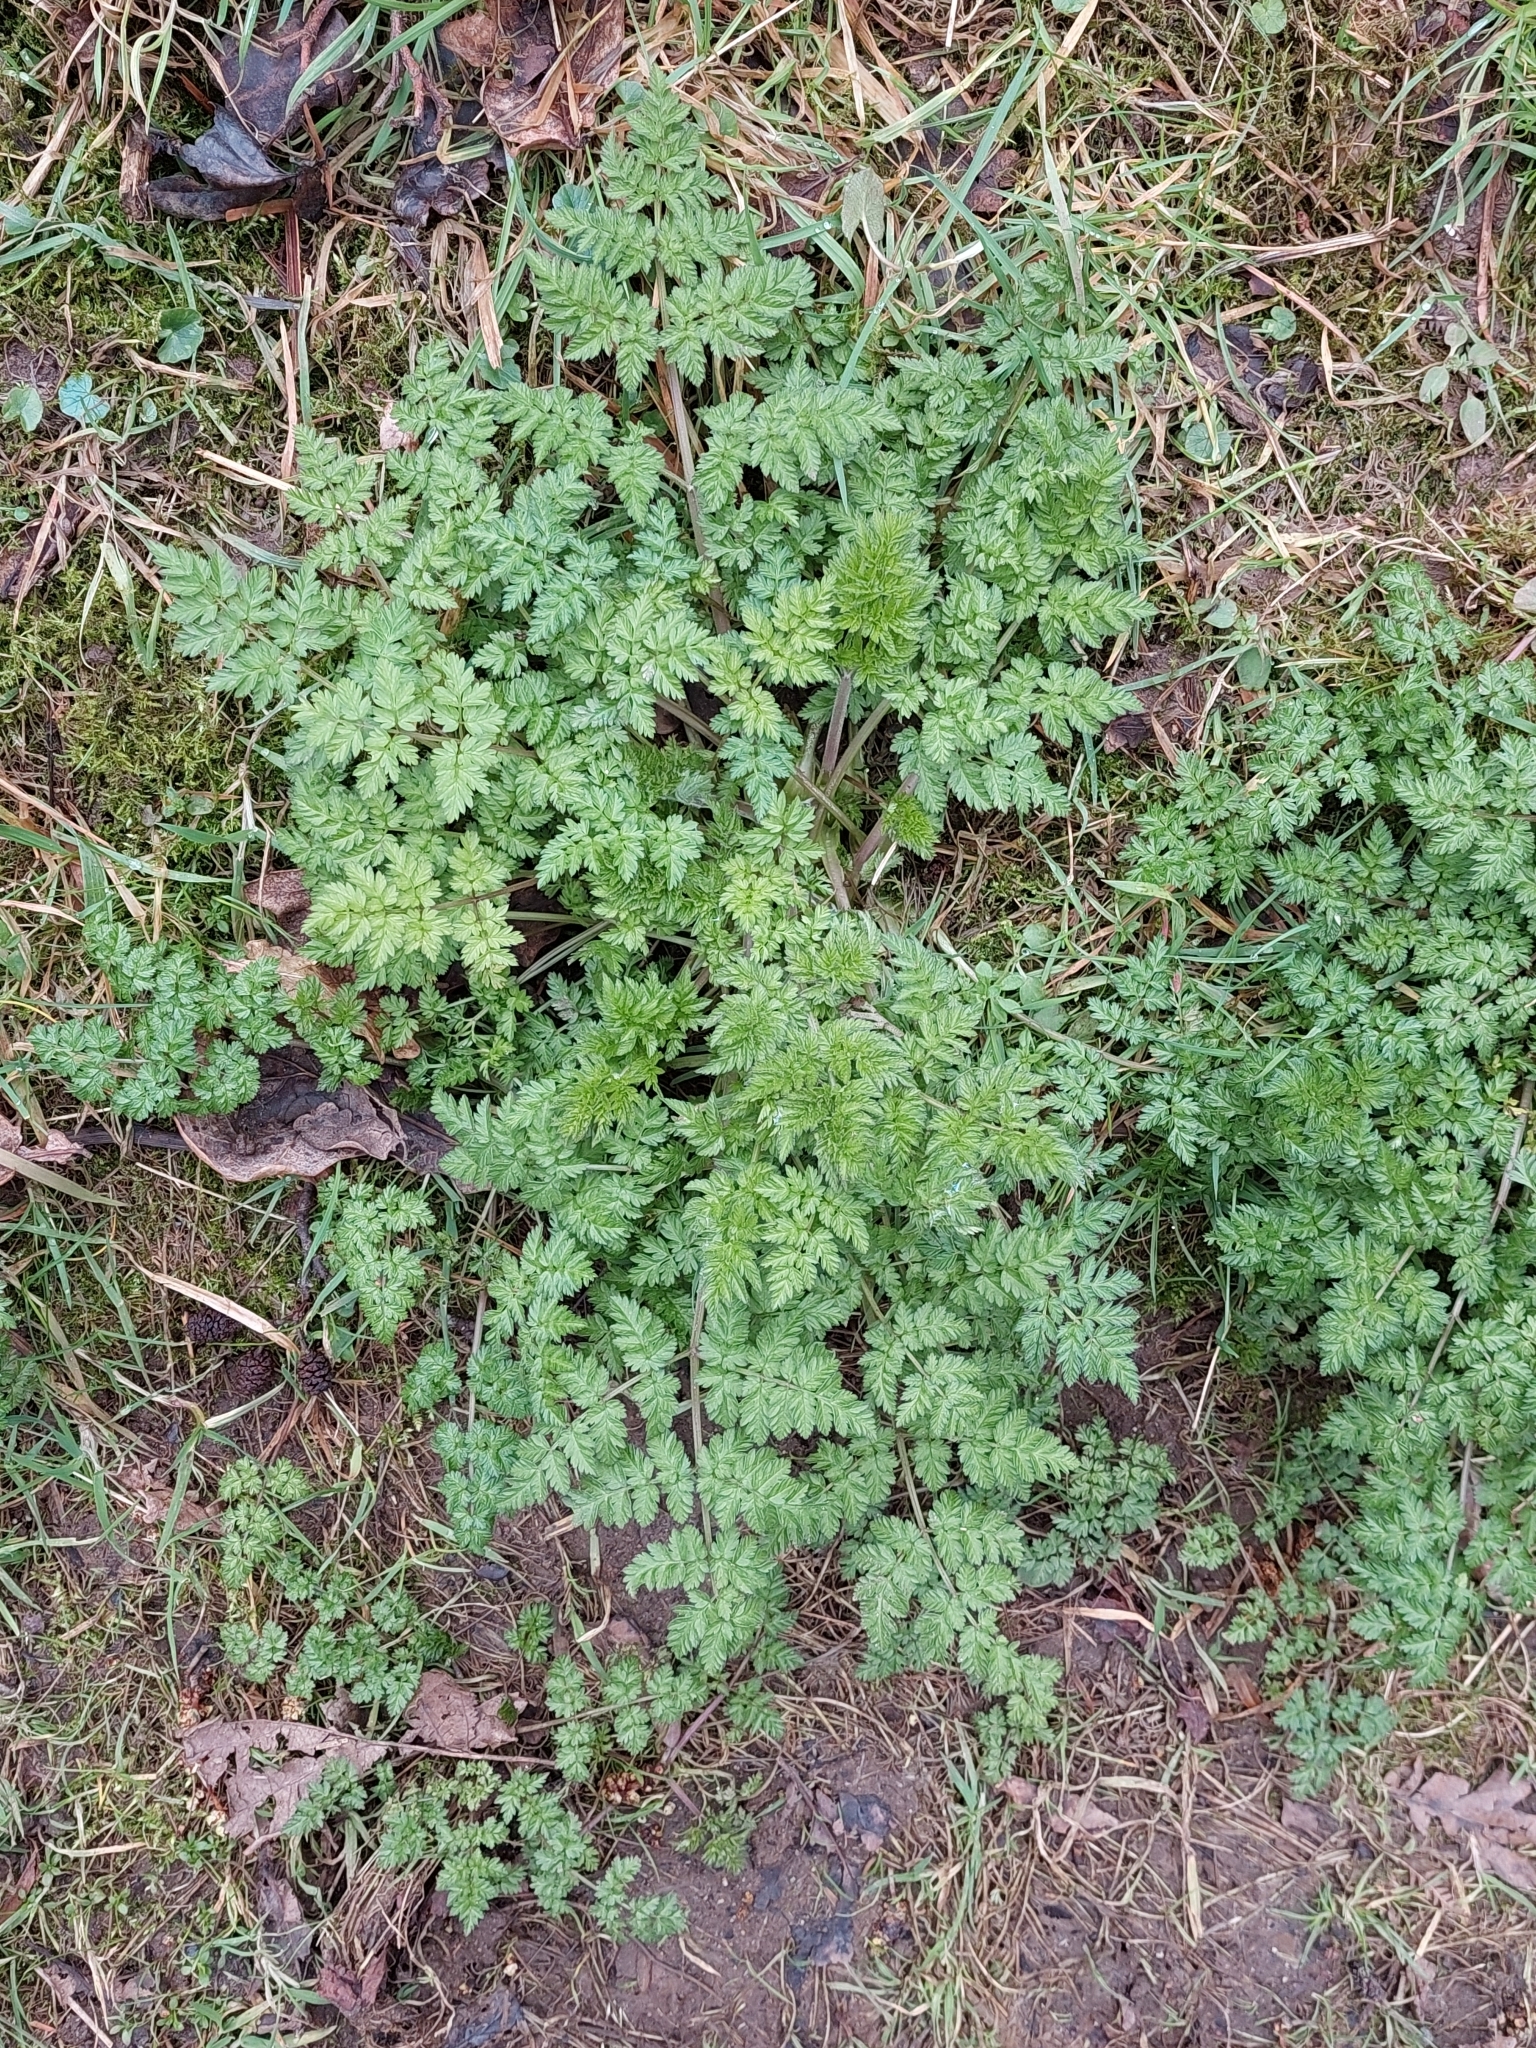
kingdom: Plantae
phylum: Tracheophyta
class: Magnoliopsida
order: Apiales
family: Apiaceae
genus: Anthriscus
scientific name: Anthriscus sylvestris
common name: Cow parsley
